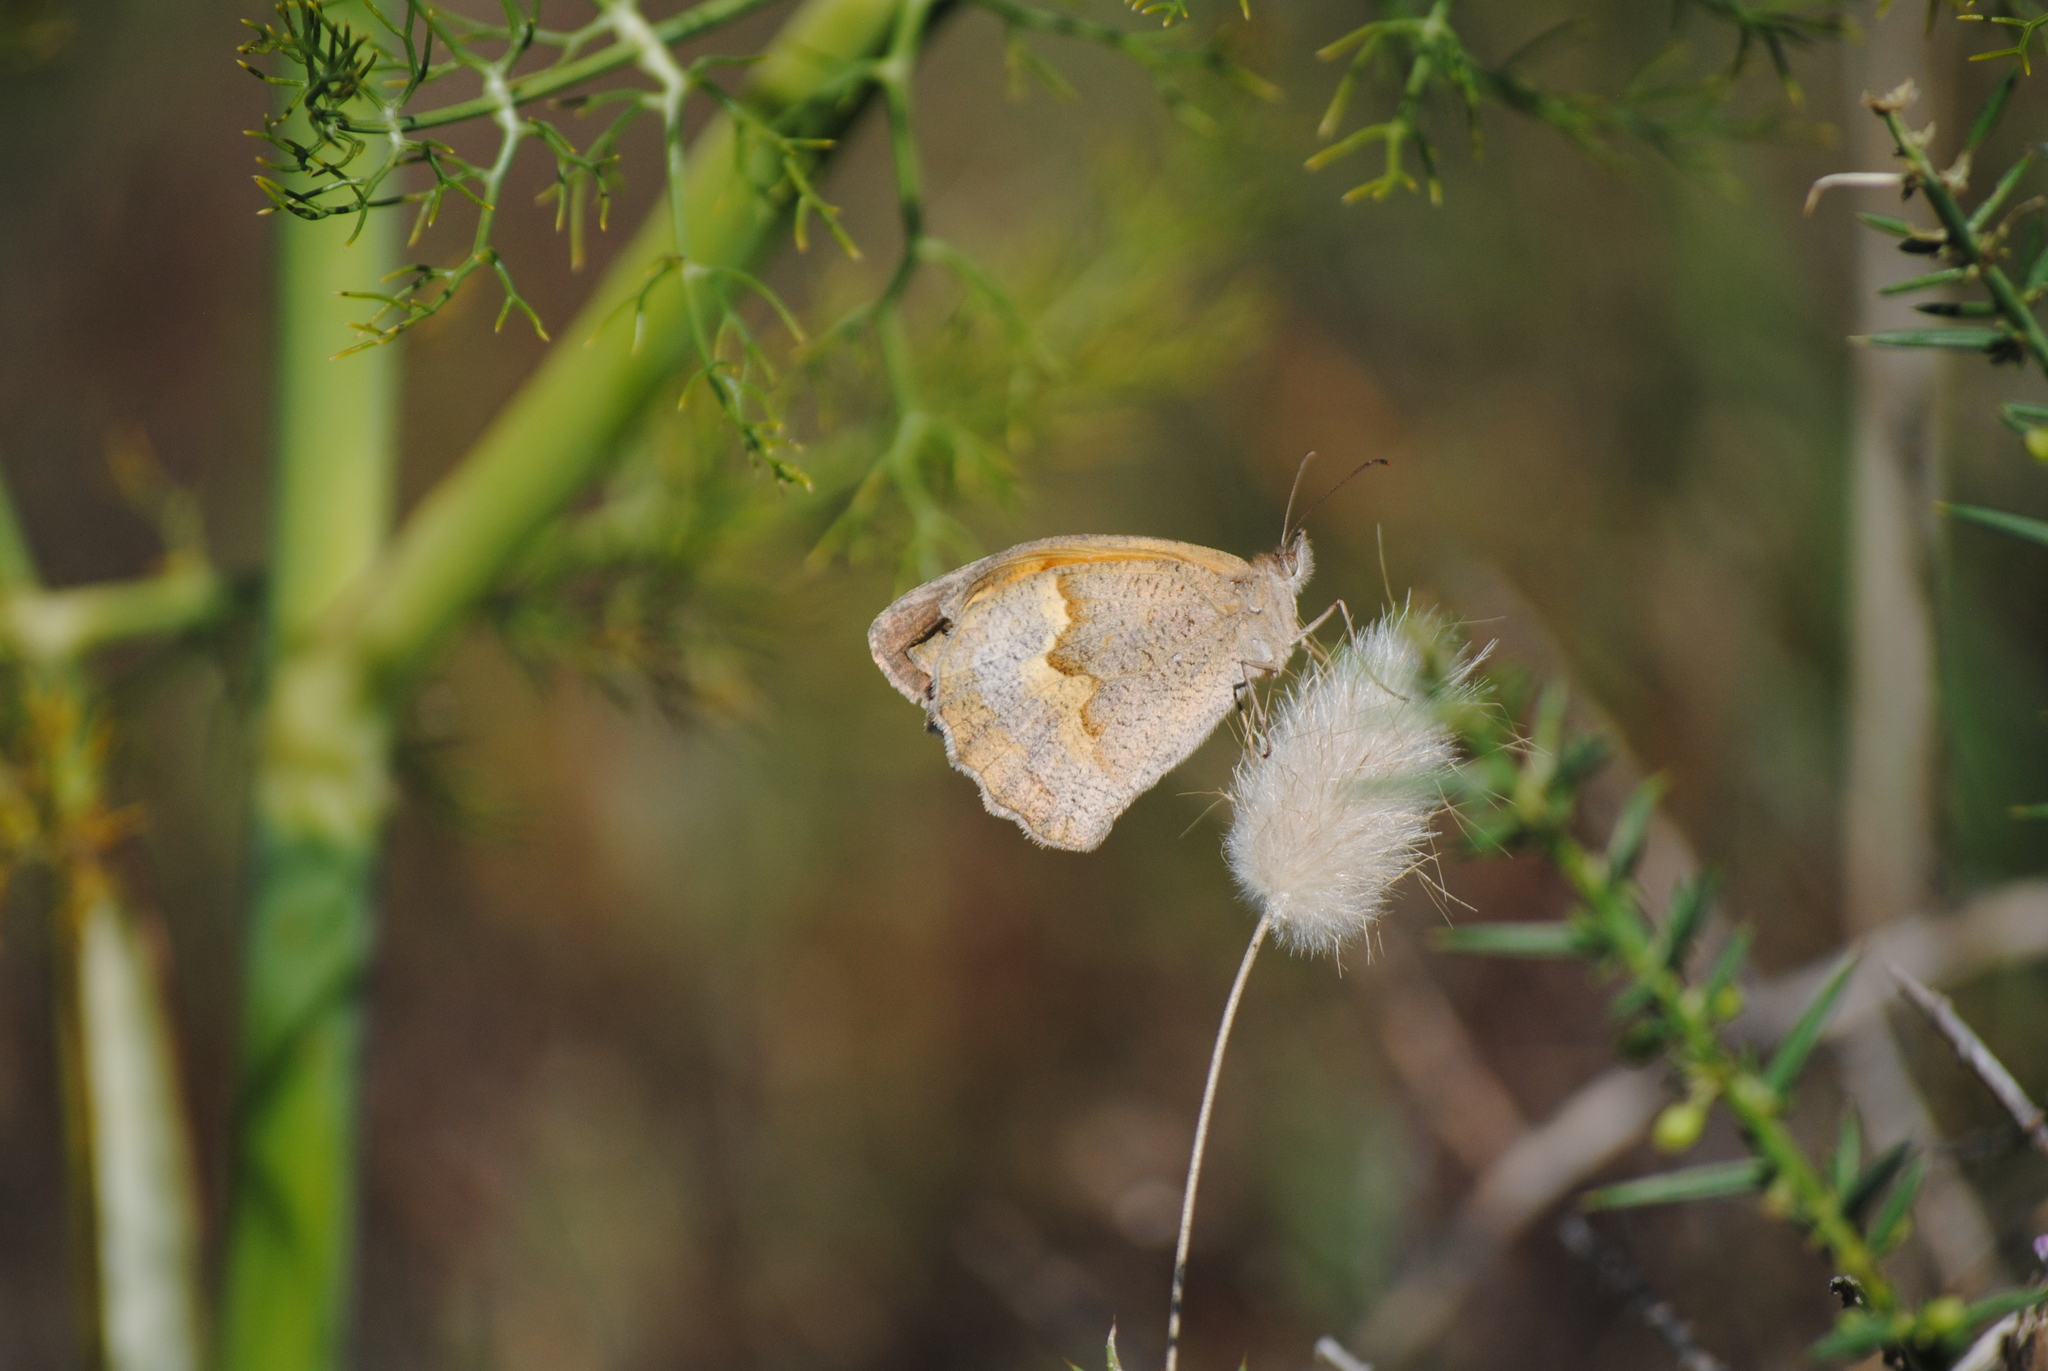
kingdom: Animalia
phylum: Arthropoda
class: Insecta
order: Lepidoptera
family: Nymphalidae
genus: Maniola
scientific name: Maniola jurtina
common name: Meadow brown
